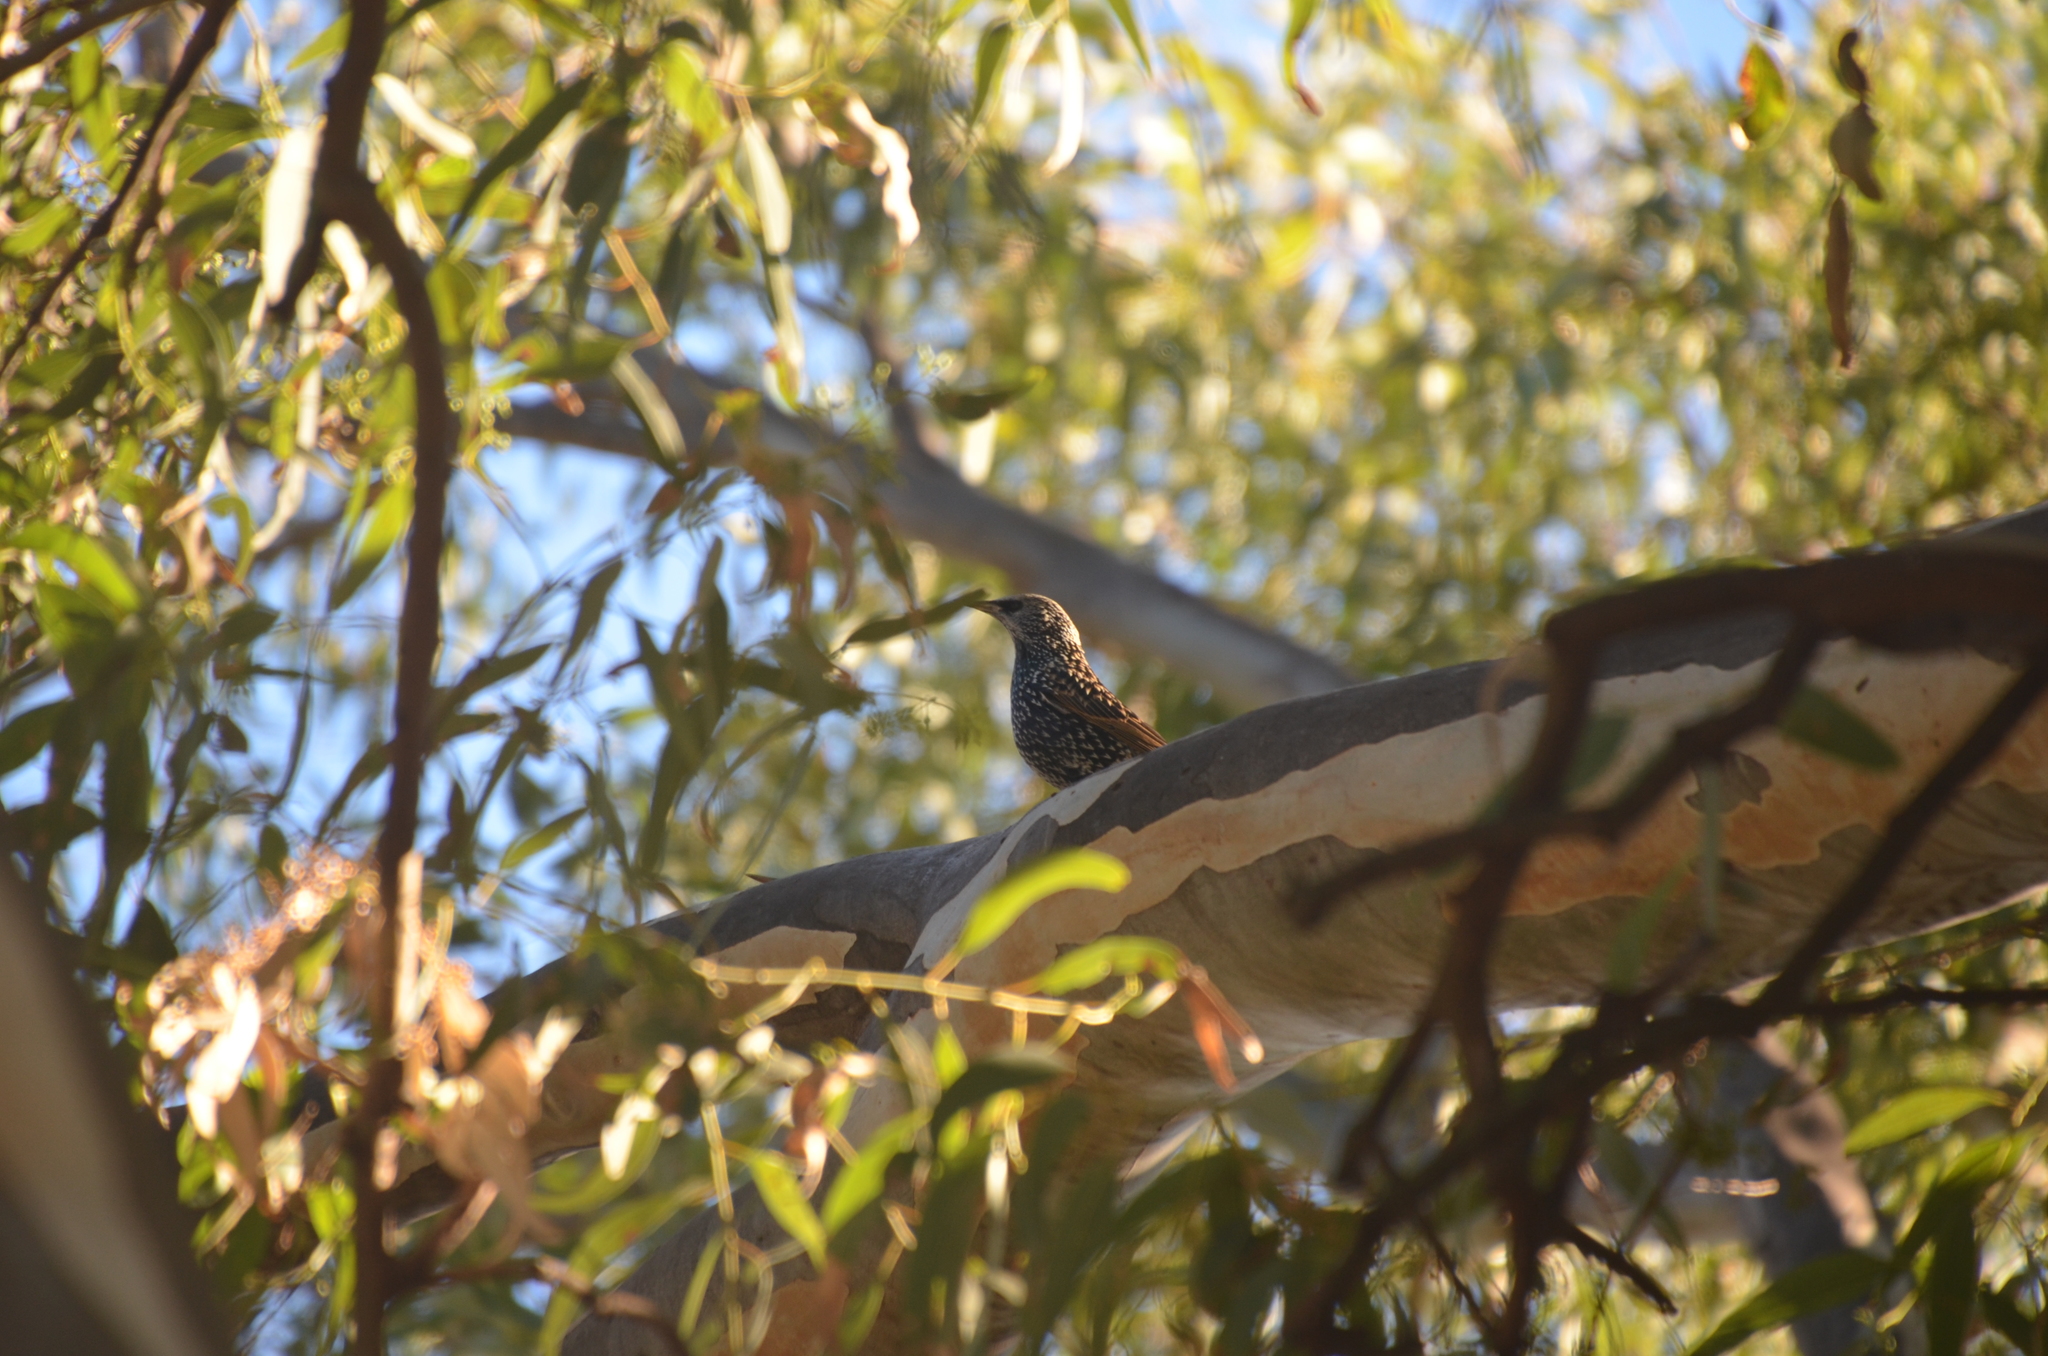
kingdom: Animalia
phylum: Chordata
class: Aves
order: Passeriformes
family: Sturnidae
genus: Sturnus
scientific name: Sturnus vulgaris
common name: Common starling
